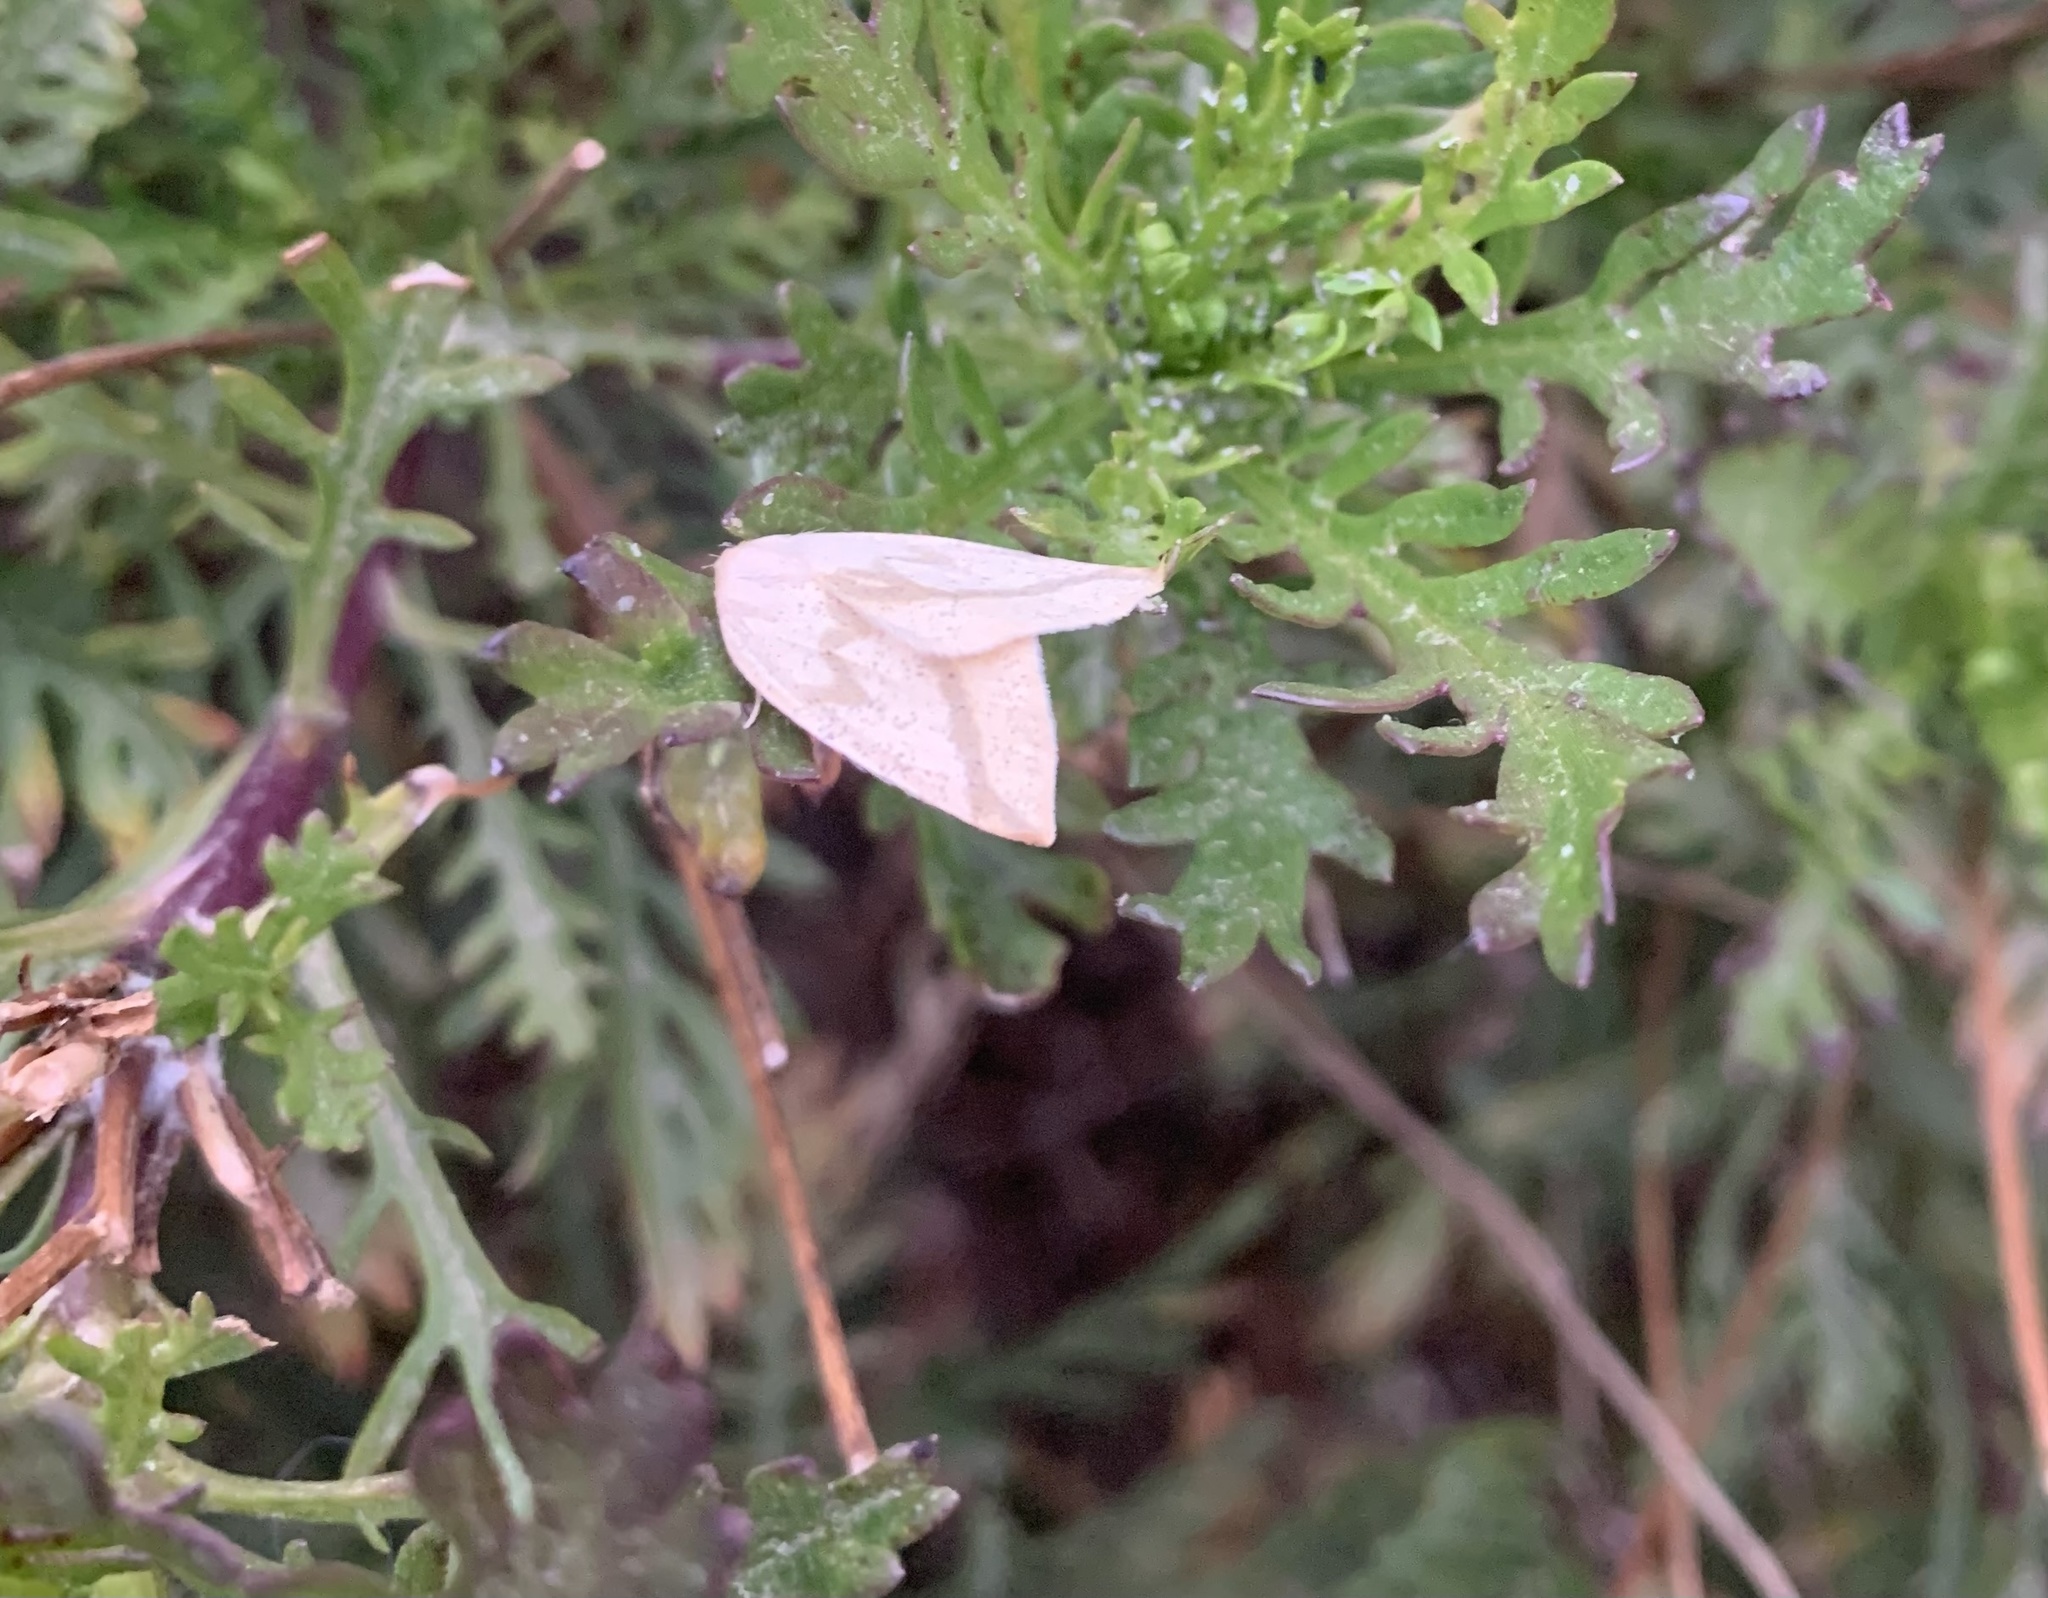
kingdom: Animalia
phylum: Arthropoda
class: Insecta
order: Lepidoptera
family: Geometridae
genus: Perusia
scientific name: Perusia lacticinia
